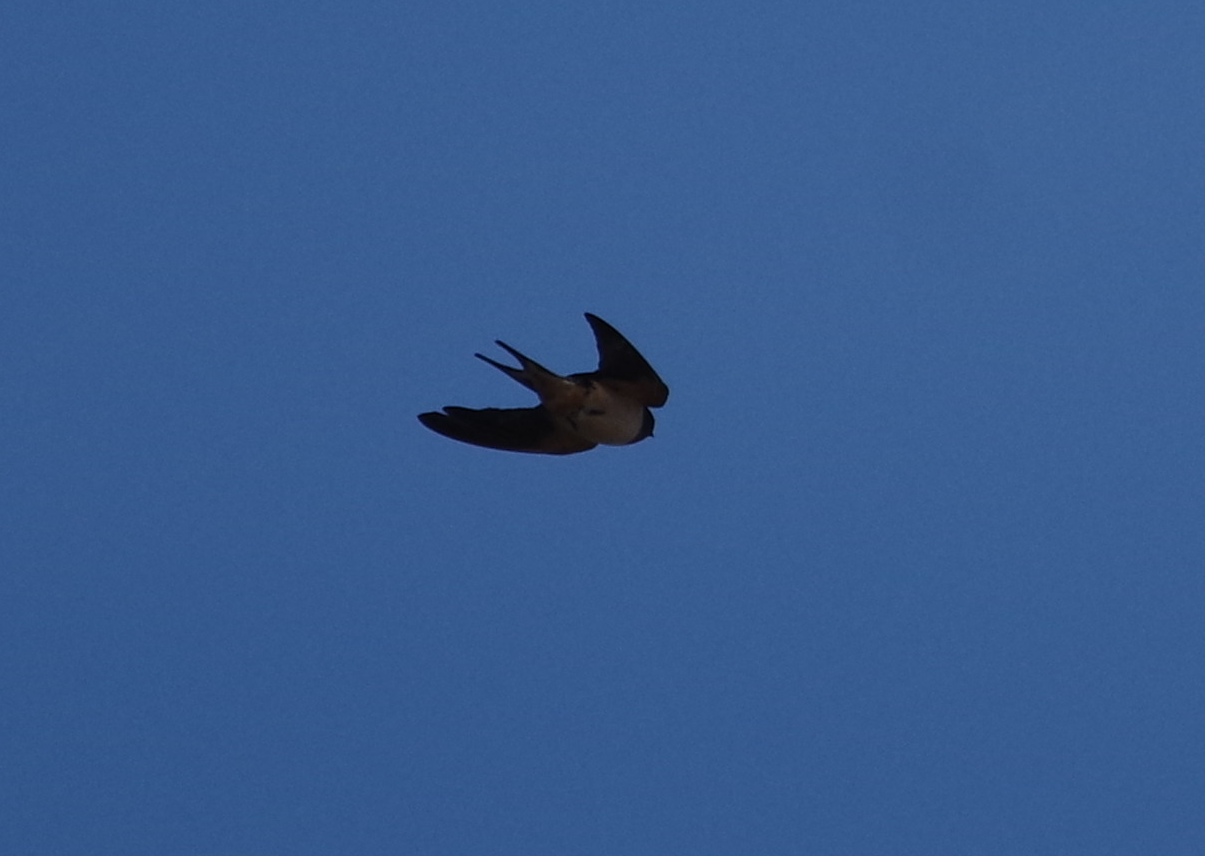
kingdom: Animalia
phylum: Chordata
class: Aves
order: Passeriformes
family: Hirundinidae
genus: Hirundo
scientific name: Hirundo rustica
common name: Barn swallow
